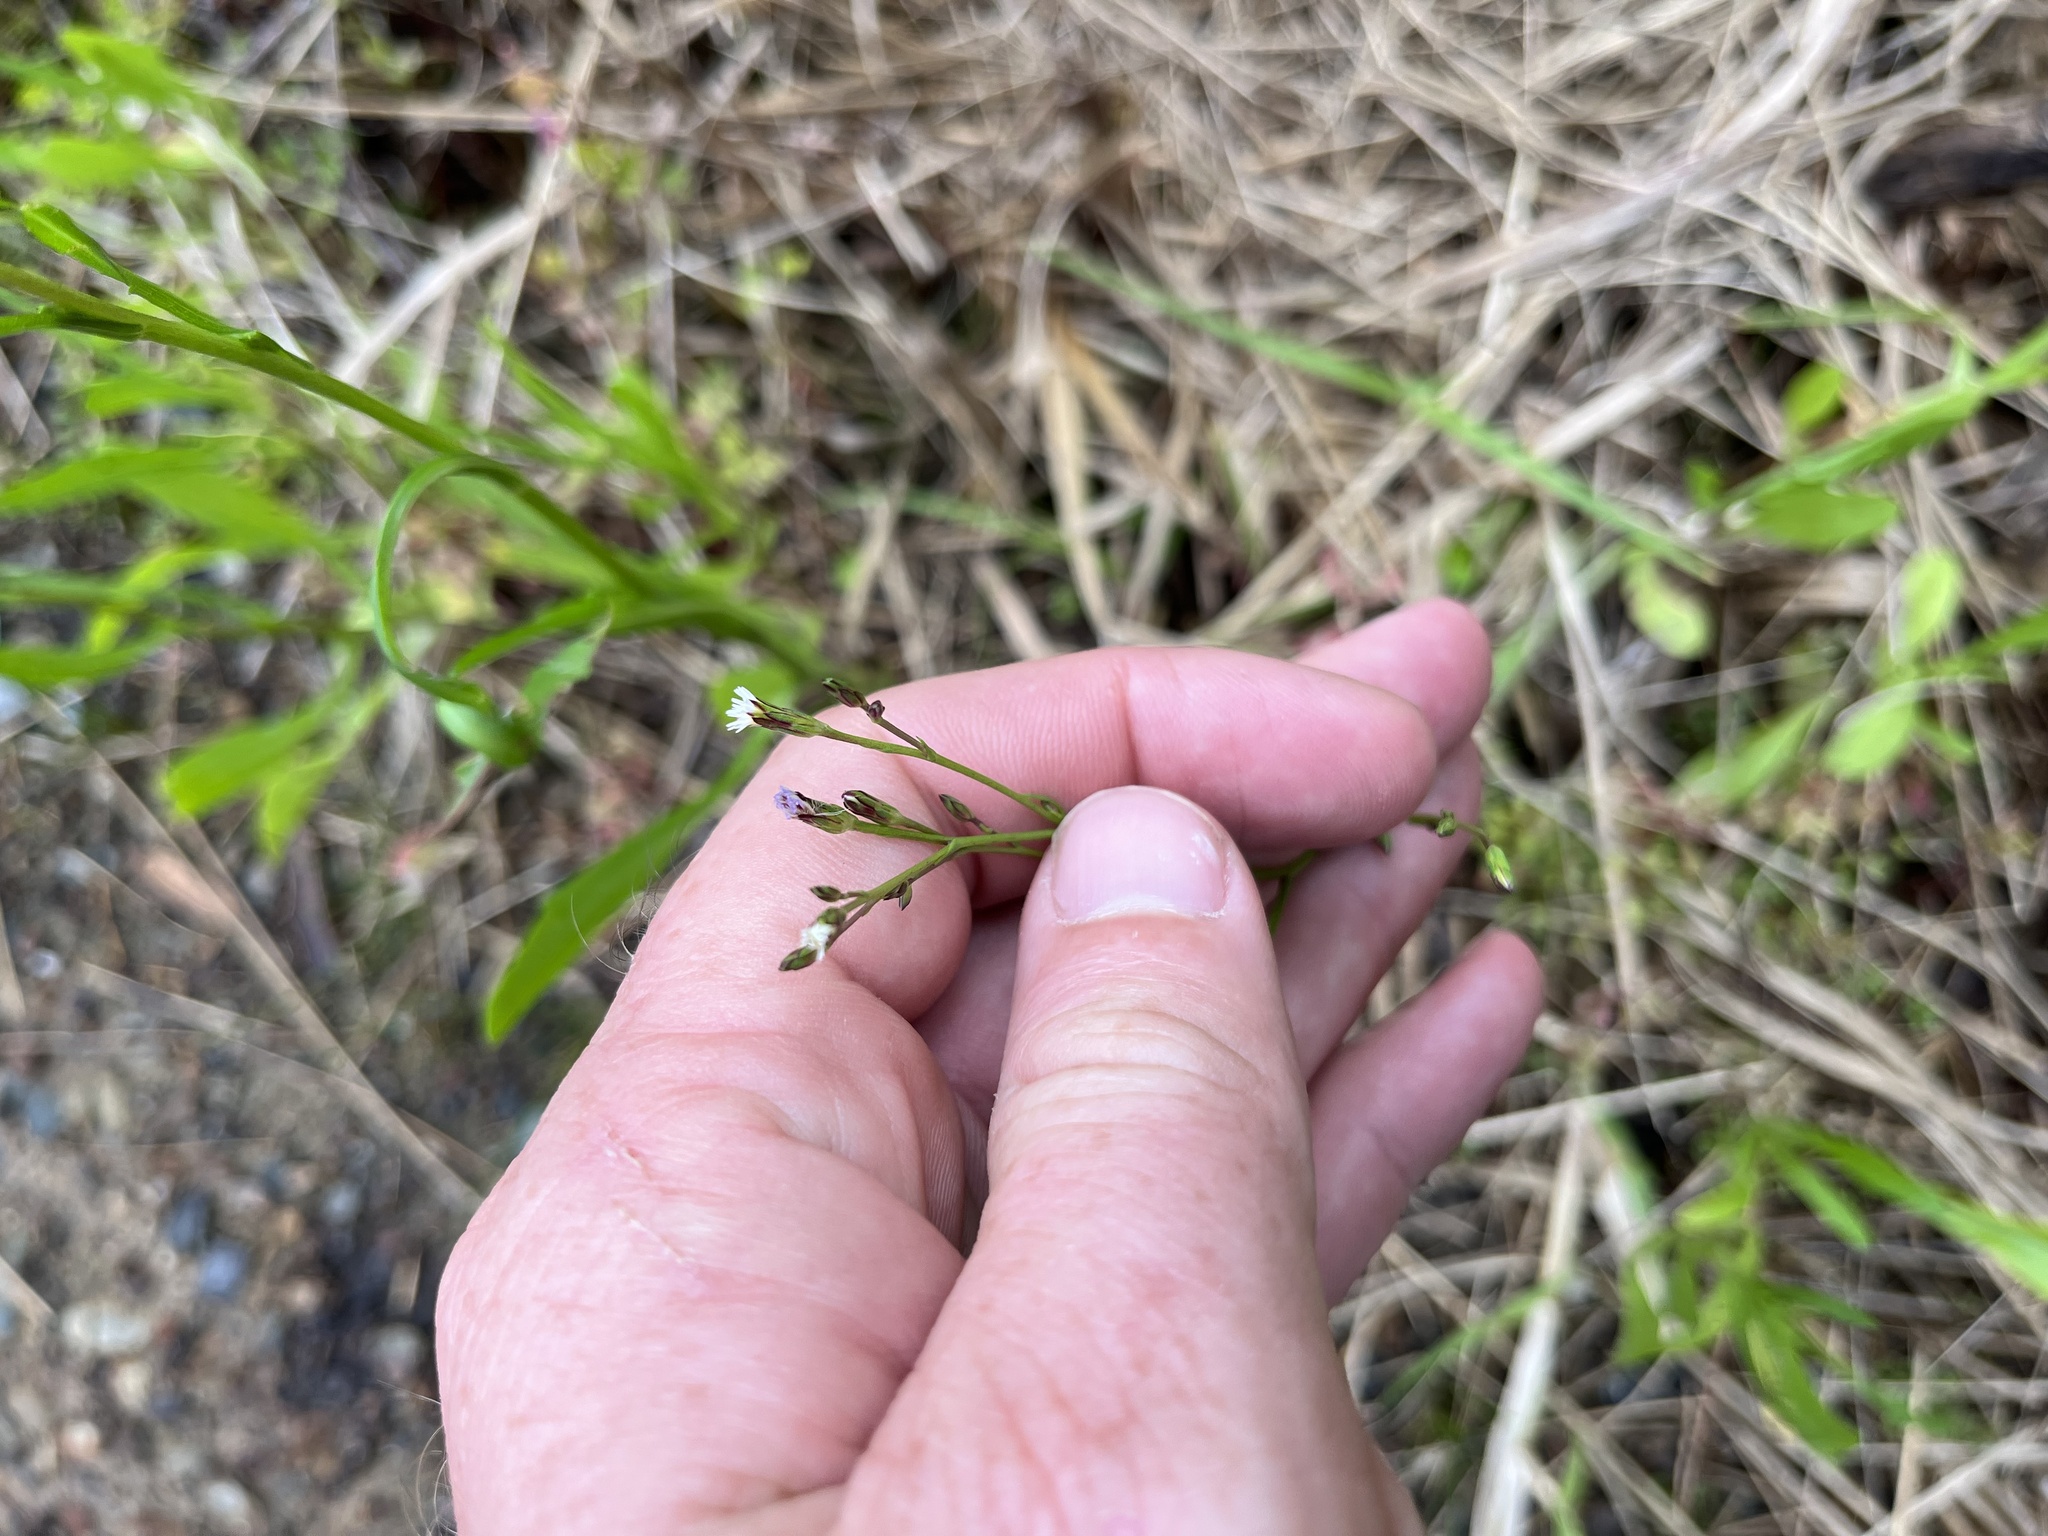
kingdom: Plantae
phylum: Tracheophyta
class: Magnoliopsida
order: Asterales
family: Campanulaceae
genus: Lobelia
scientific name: Lobelia anceps
